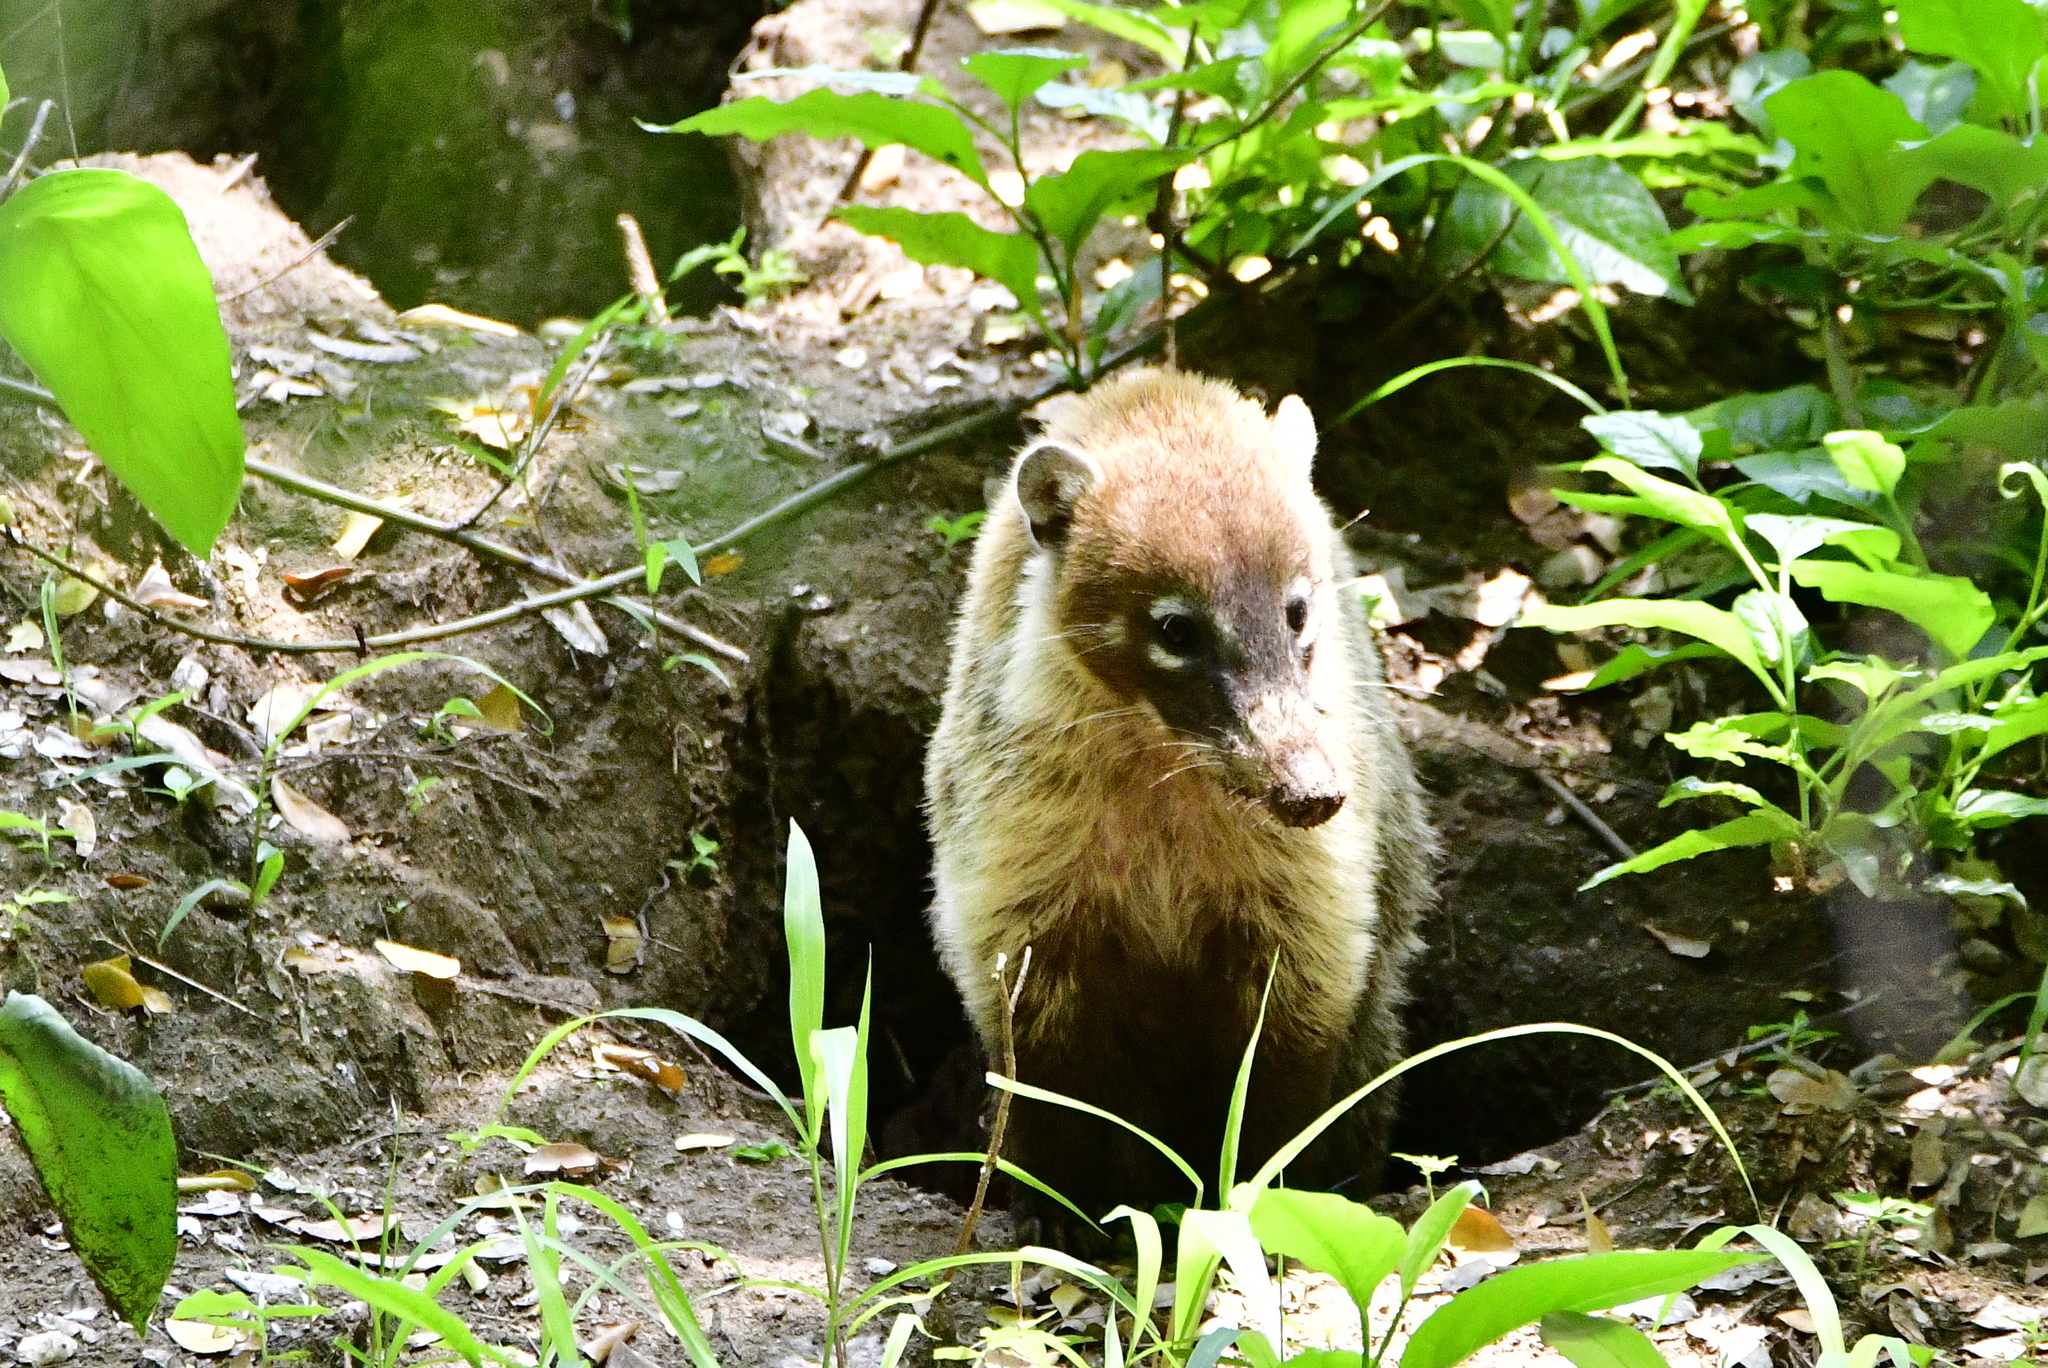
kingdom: Animalia
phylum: Chordata
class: Mammalia
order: Carnivora
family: Procyonidae
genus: Nasua
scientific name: Nasua narica
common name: White-nosed coati
